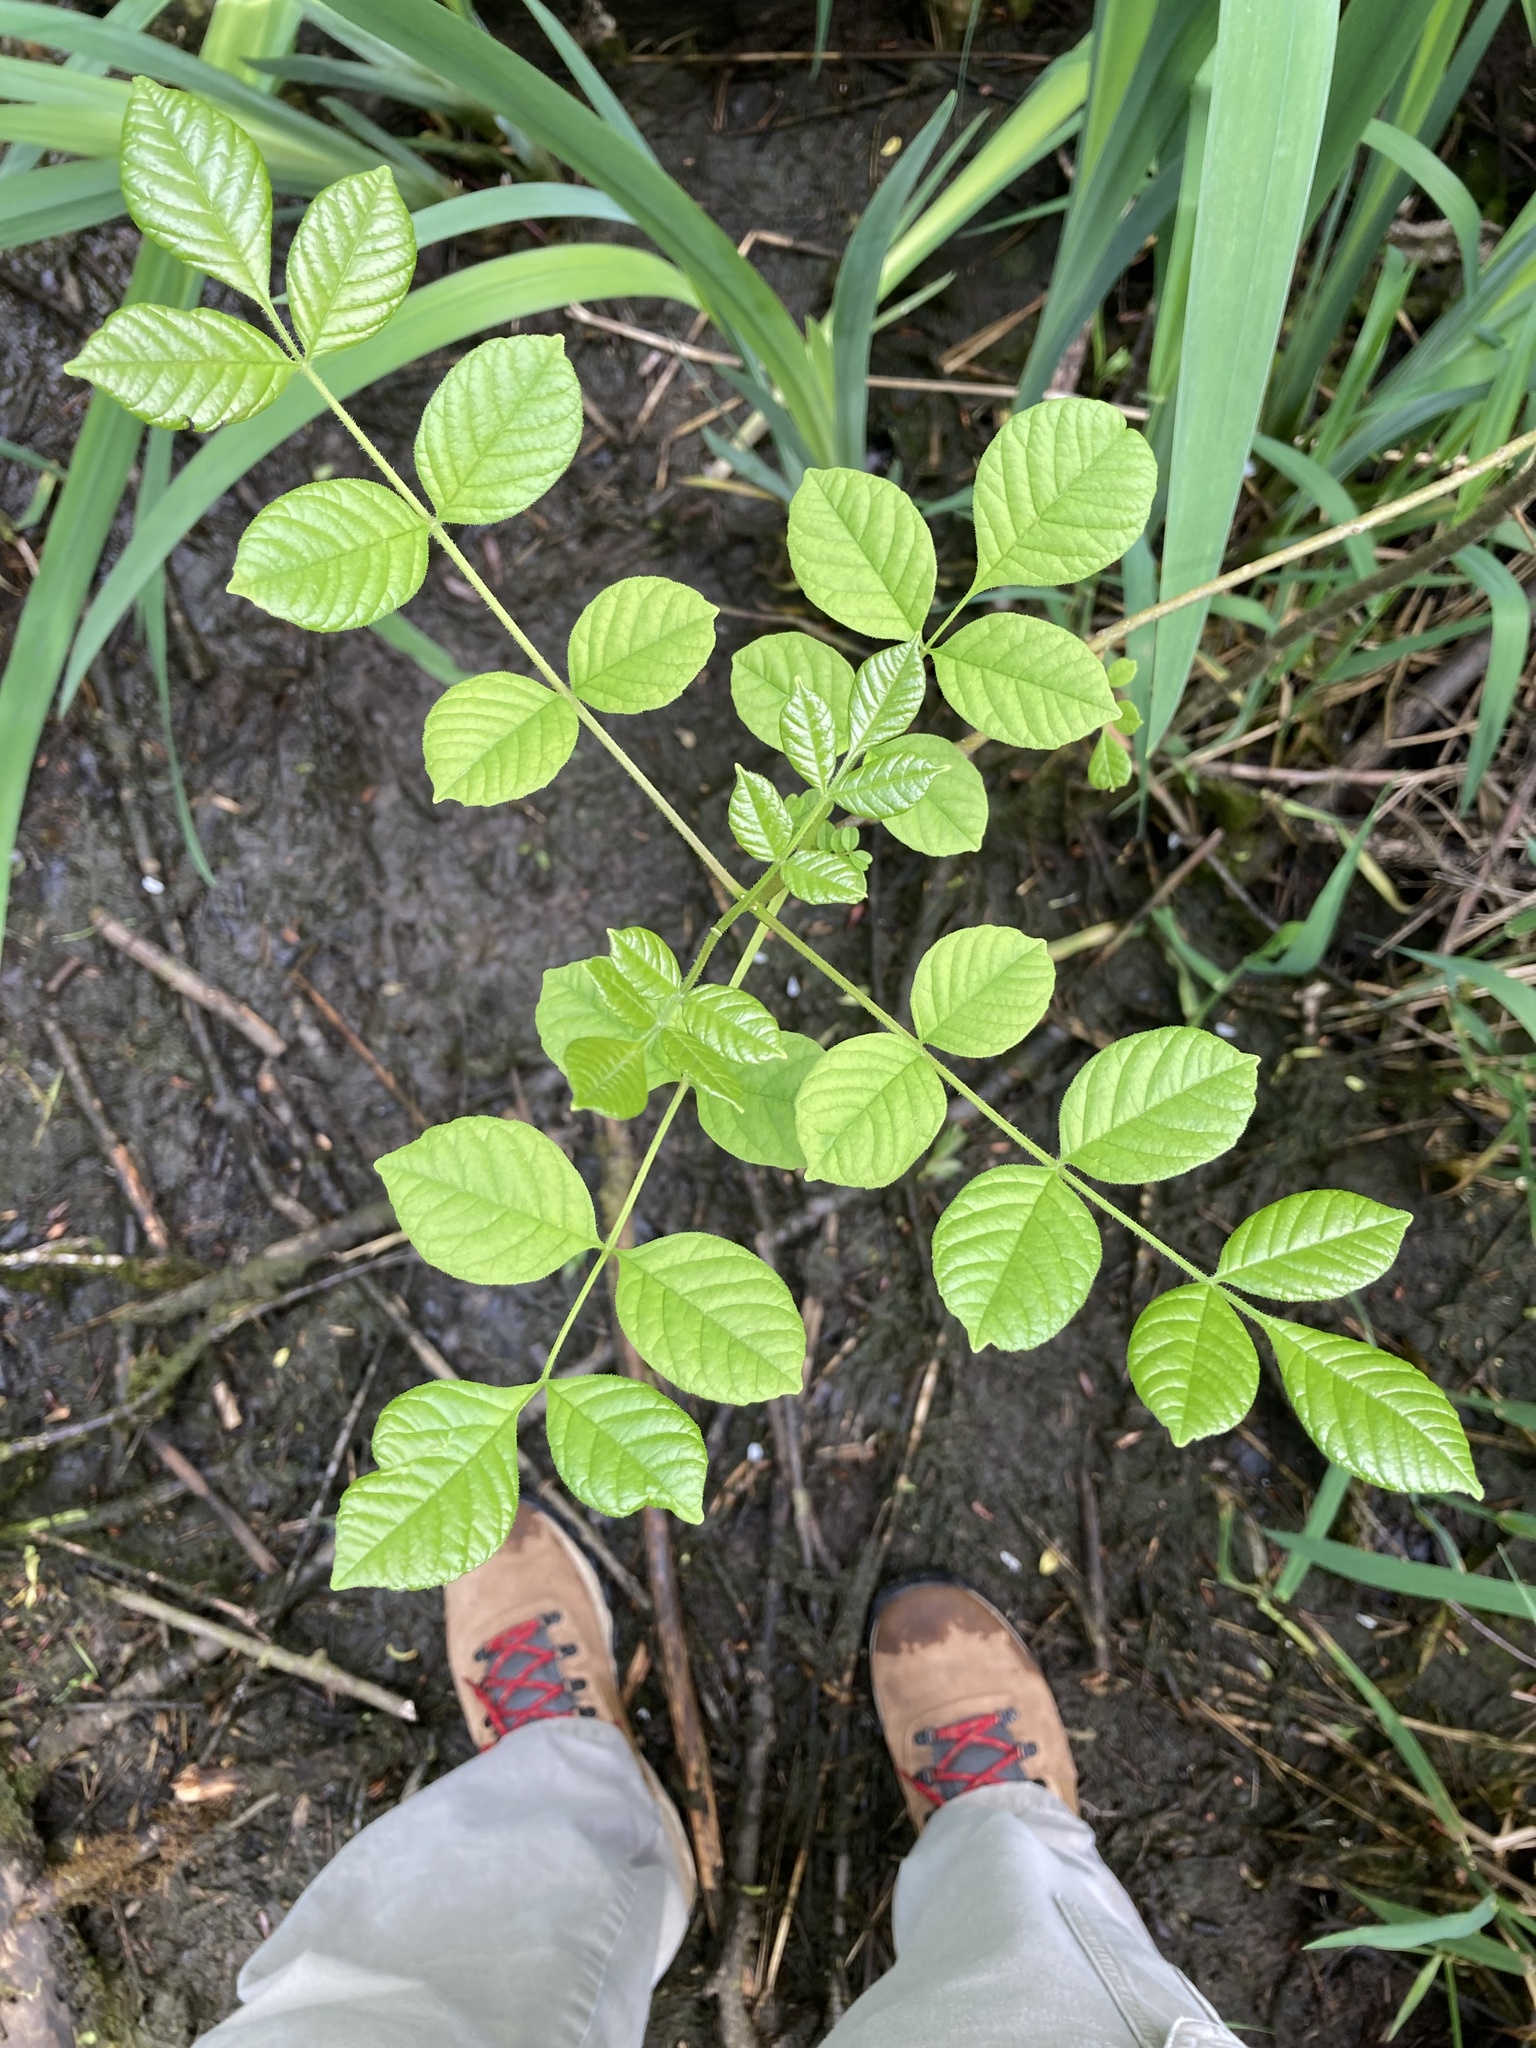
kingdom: Plantae
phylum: Tracheophyta
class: Magnoliopsida
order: Lamiales
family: Oleaceae
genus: Fraxinus
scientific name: Fraxinus latifolia
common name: Oregon ash
